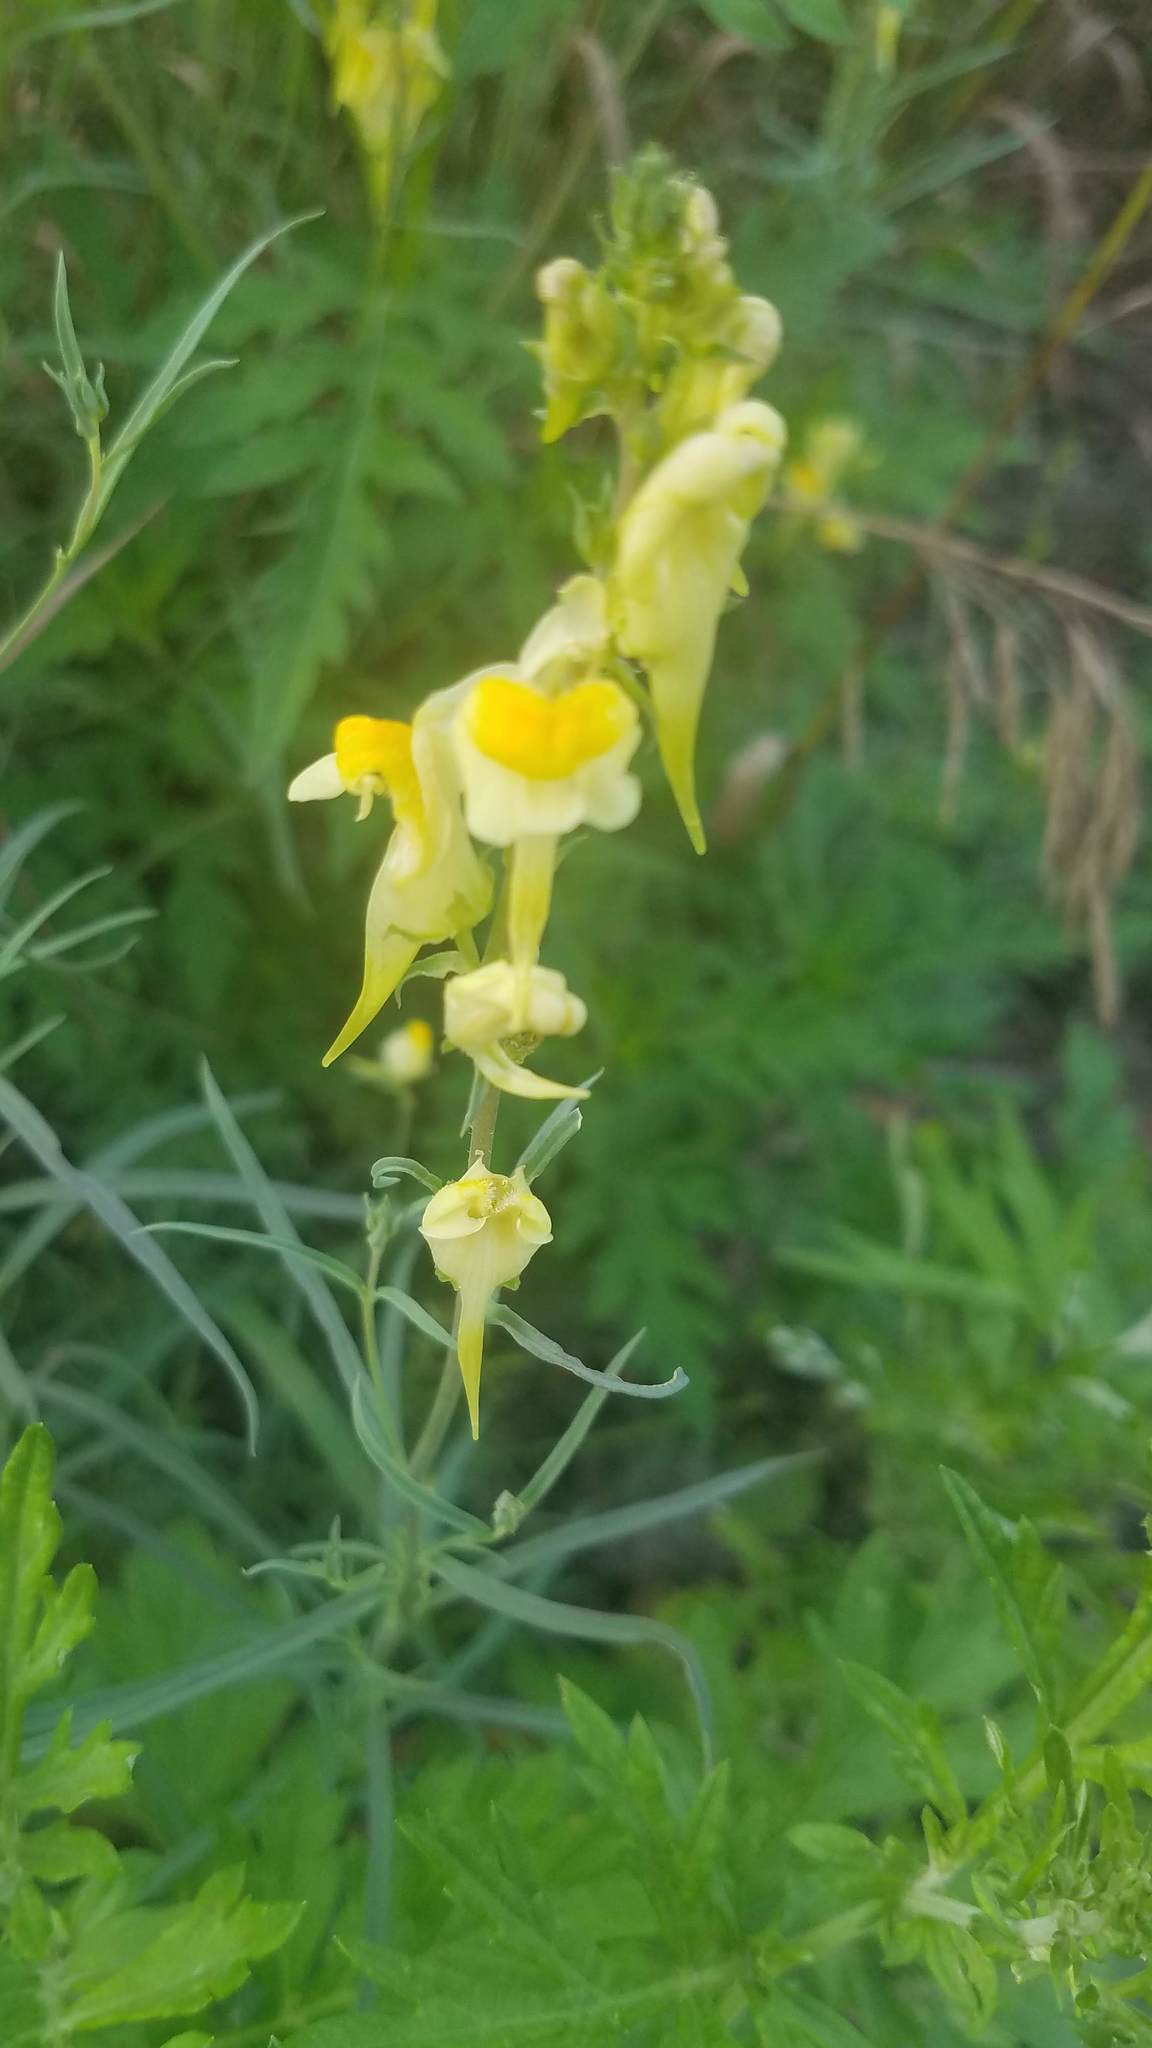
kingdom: Plantae
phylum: Tracheophyta
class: Magnoliopsida
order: Lamiales
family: Plantaginaceae
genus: Linaria
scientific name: Linaria vulgaris
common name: Butter and eggs
